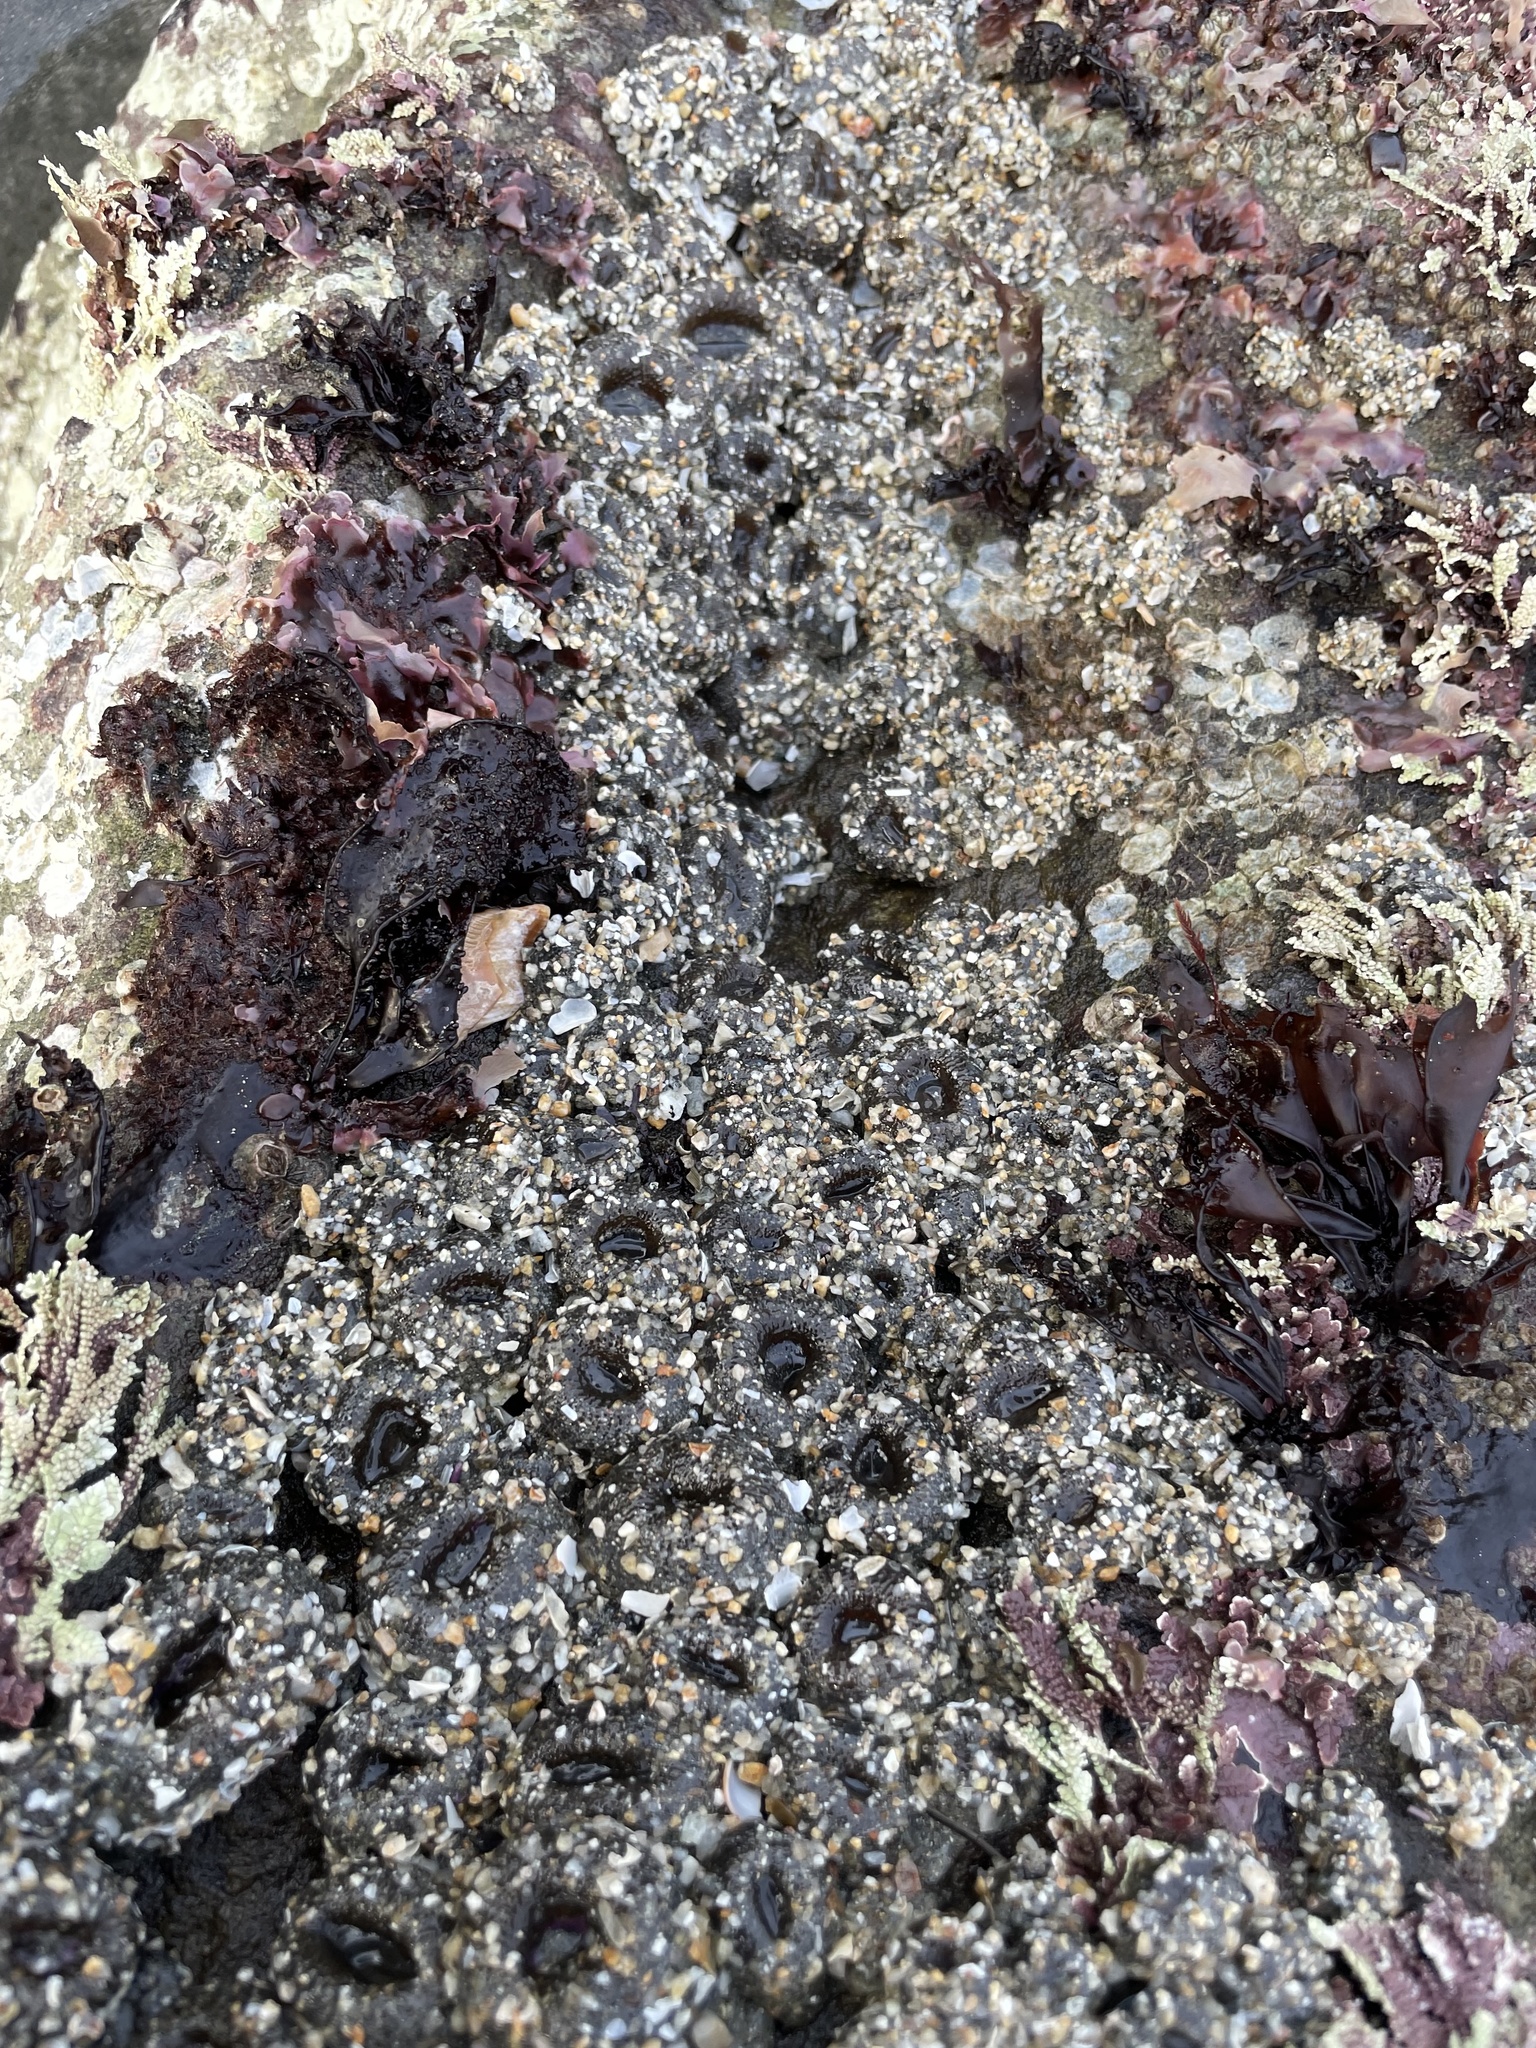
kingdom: Animalia
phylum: Cnidaria
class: Anthozoa
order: Actiniaria
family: Actiniidae
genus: Anthopleura
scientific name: Anthopleura elegantissima
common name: Clonal anemone
